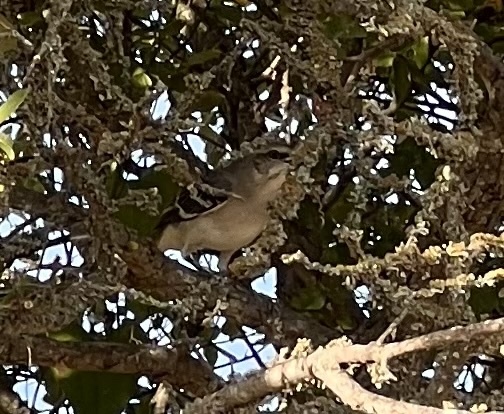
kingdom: Animalia
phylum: Chordata
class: Aves
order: Passeriformes
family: Mimidae
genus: Mimus
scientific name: Mimus polyglottos
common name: Northern mockingbird
